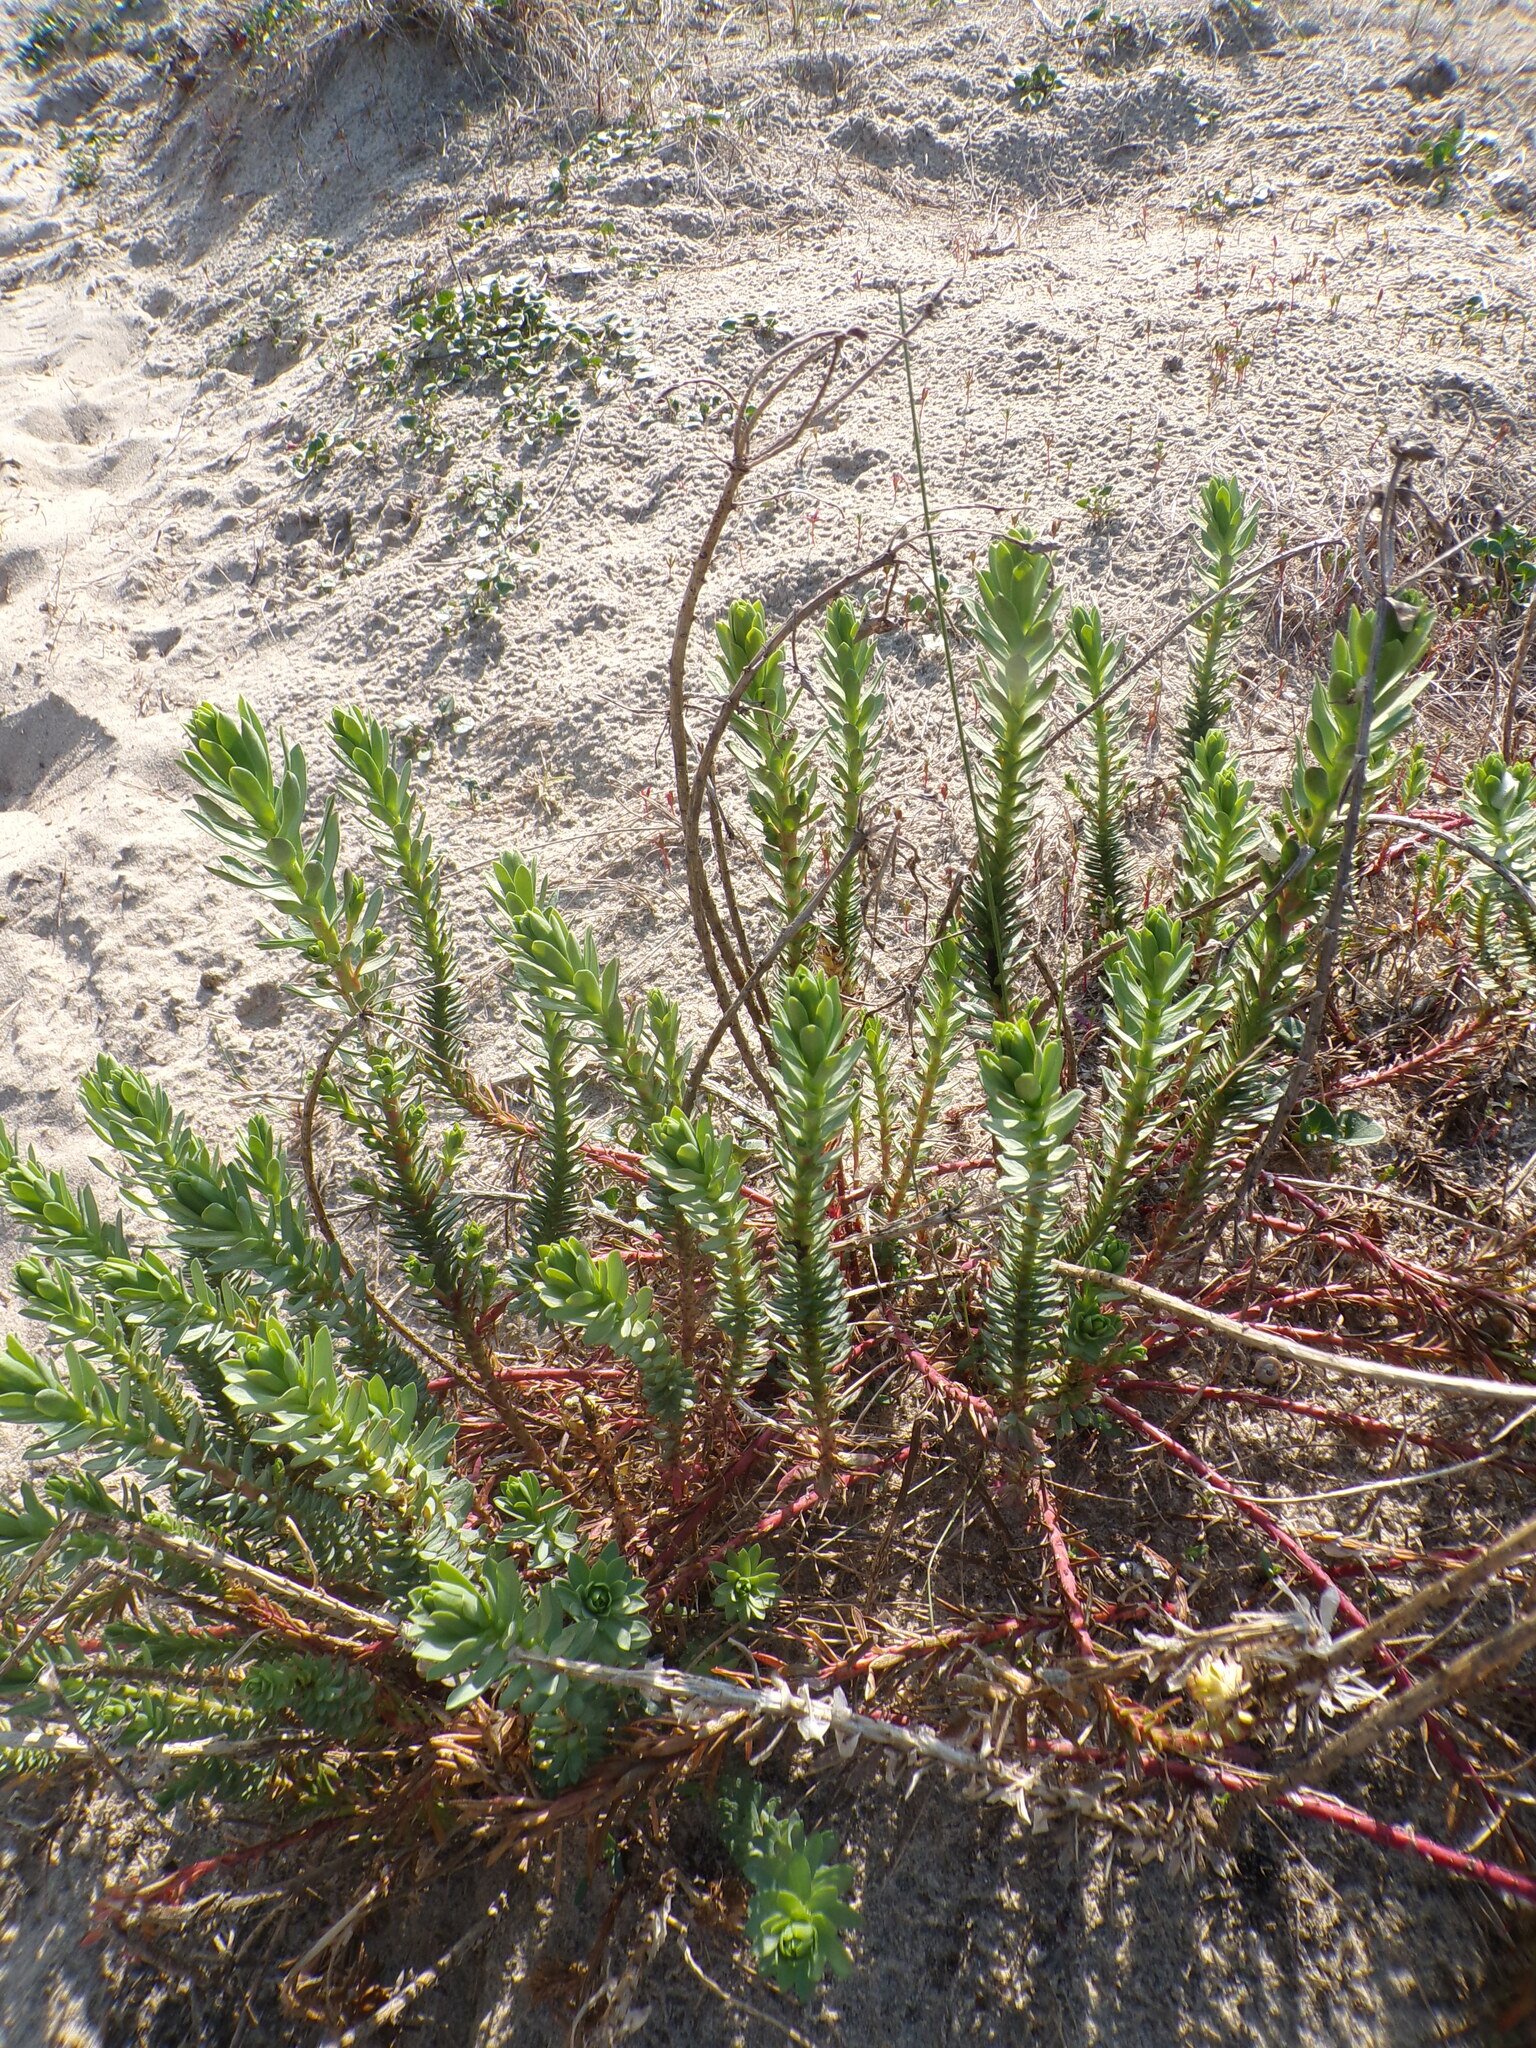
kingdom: Plantae
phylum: Tracheophyta
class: Magnoliopsida
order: Malpighiales
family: Euphorbiaceae
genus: Euphorbia
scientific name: Euphorbia paralias
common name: Sea spurge
